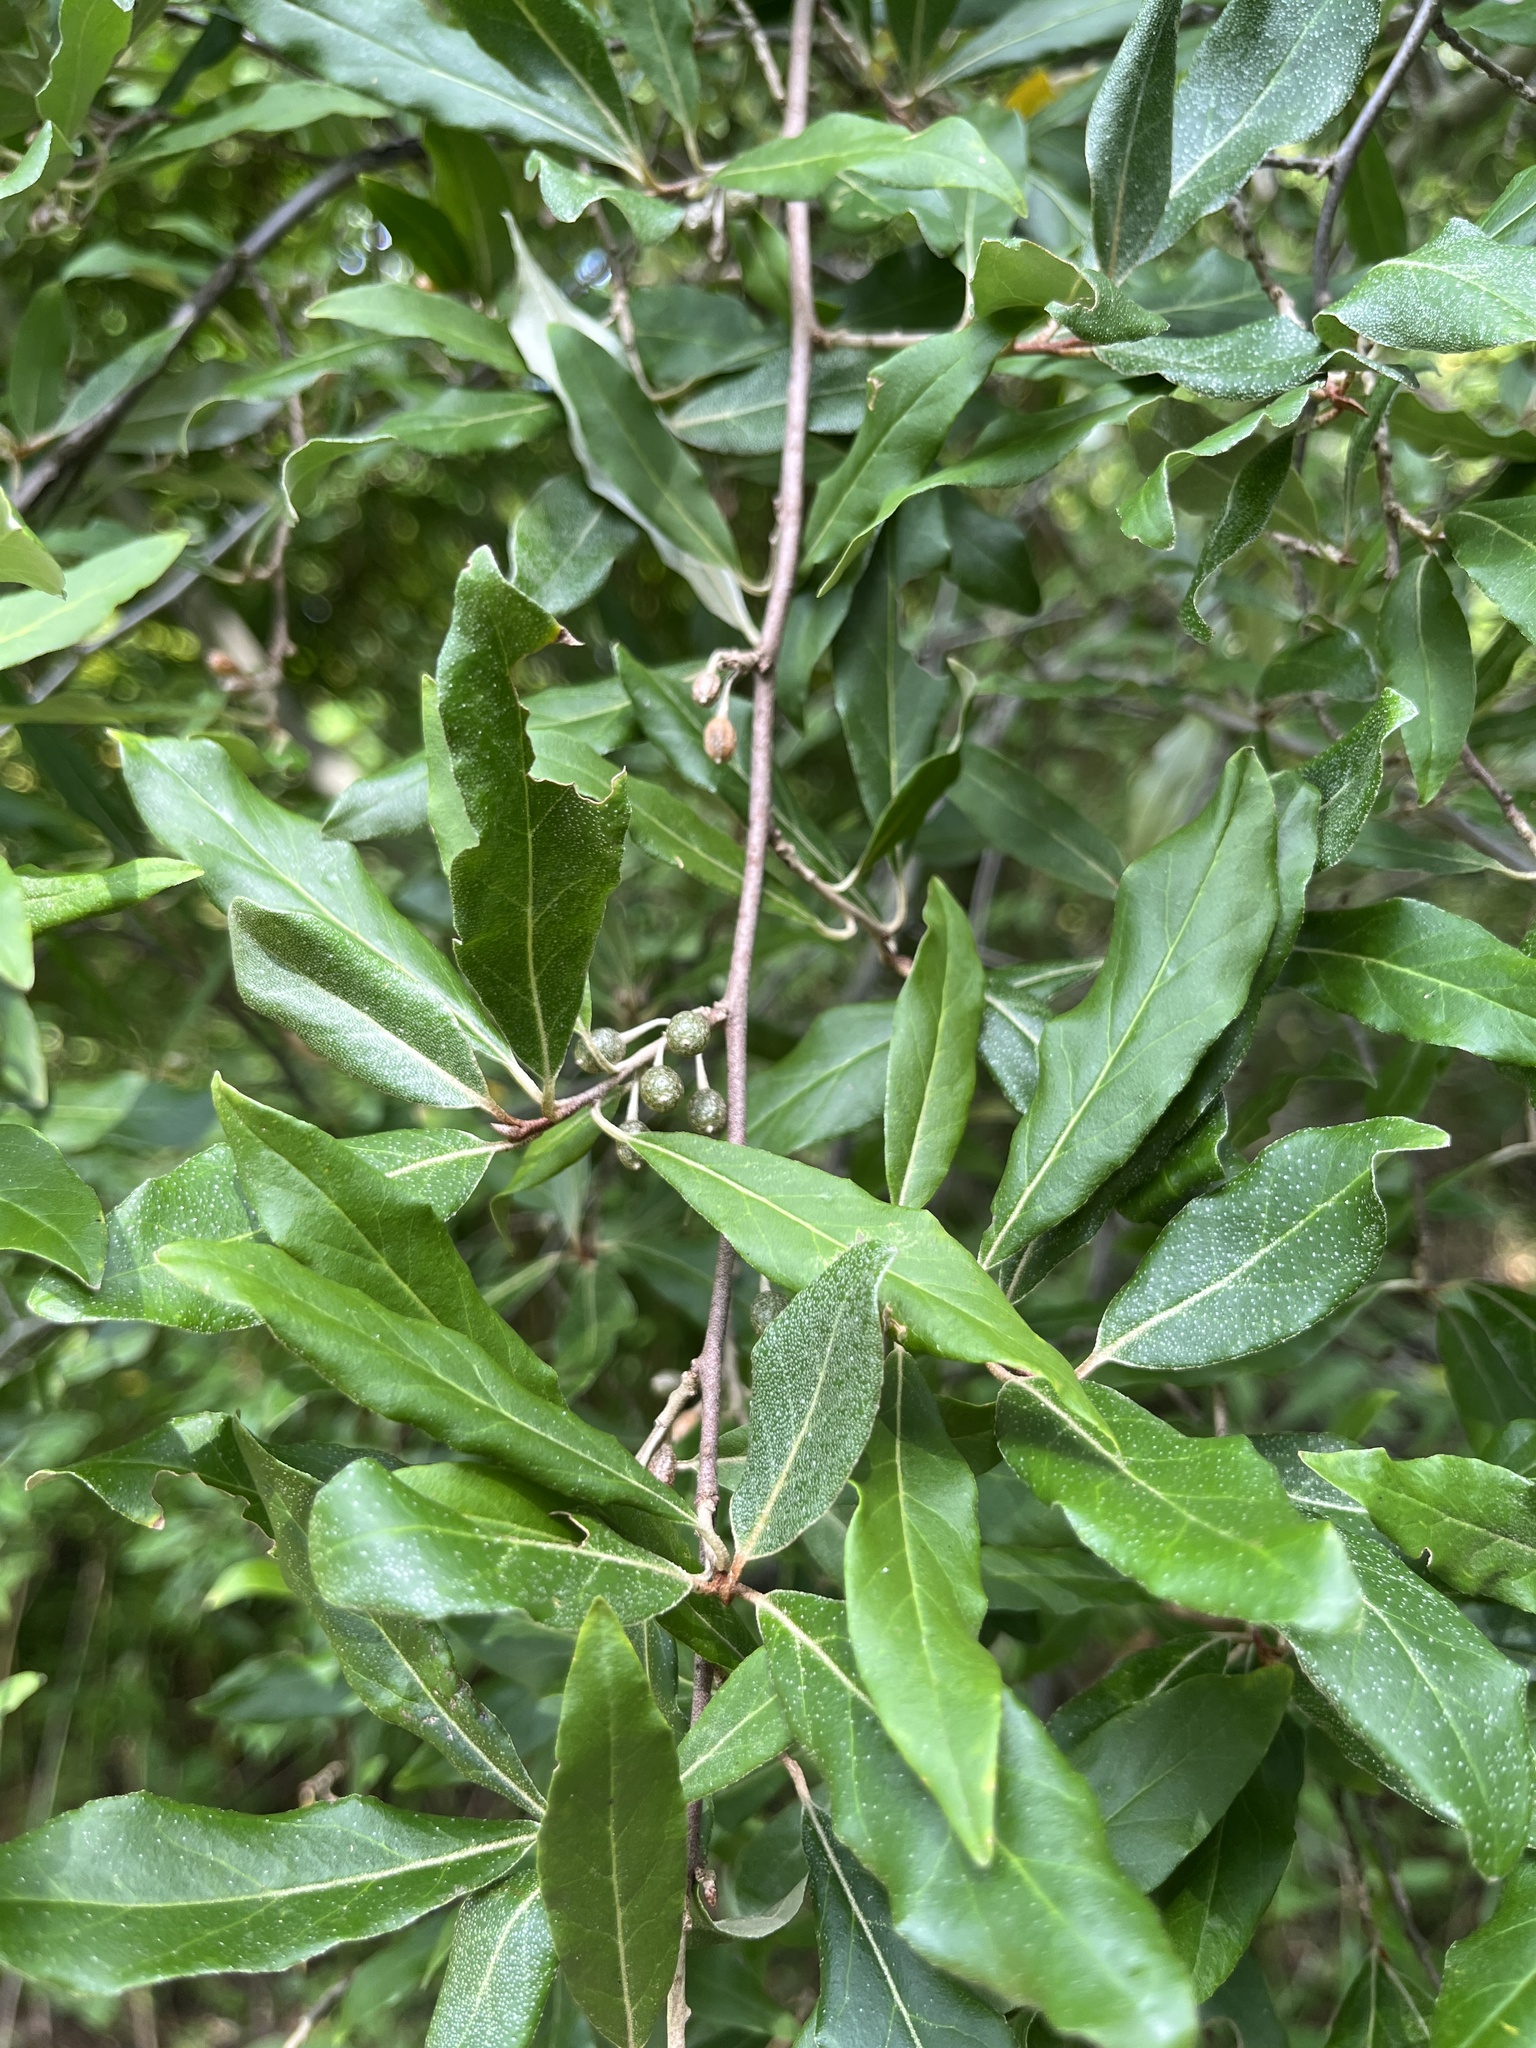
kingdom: Plantae
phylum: Tracheophyta
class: Magnoliopsida
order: Rosales
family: Elaeagnaceae
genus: Elaeagnus
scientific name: Elaeagnus umbellata
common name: Autumn olive
